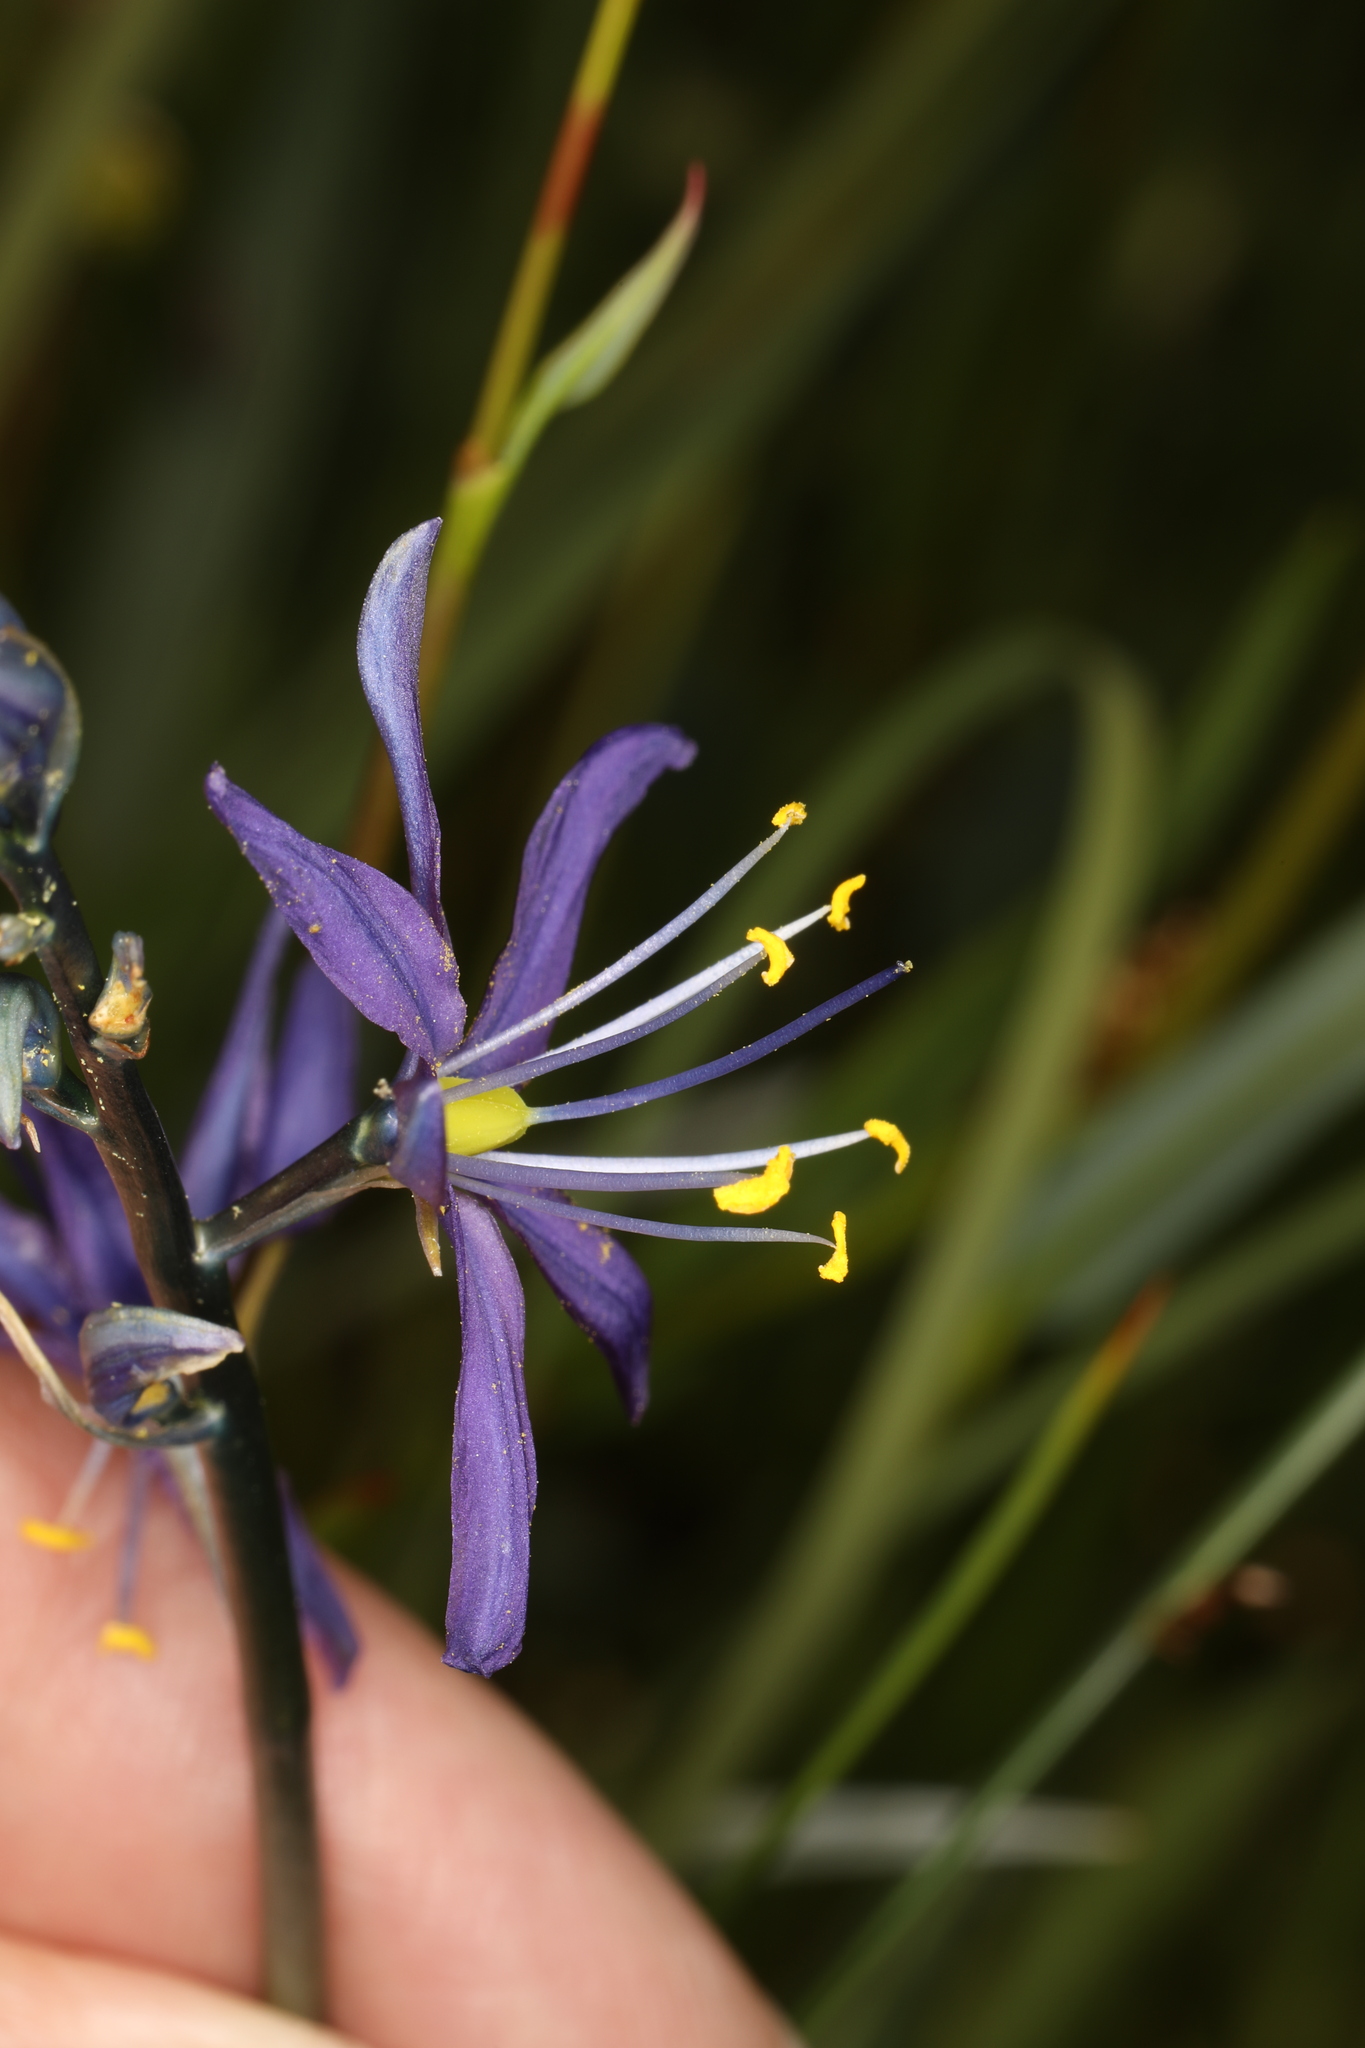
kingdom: Plantae
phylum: Tracheophyta
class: Liliopsida
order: Asparagales
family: Asparagaceae
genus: Camassia
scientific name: Camassia quamash
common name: Common camas
